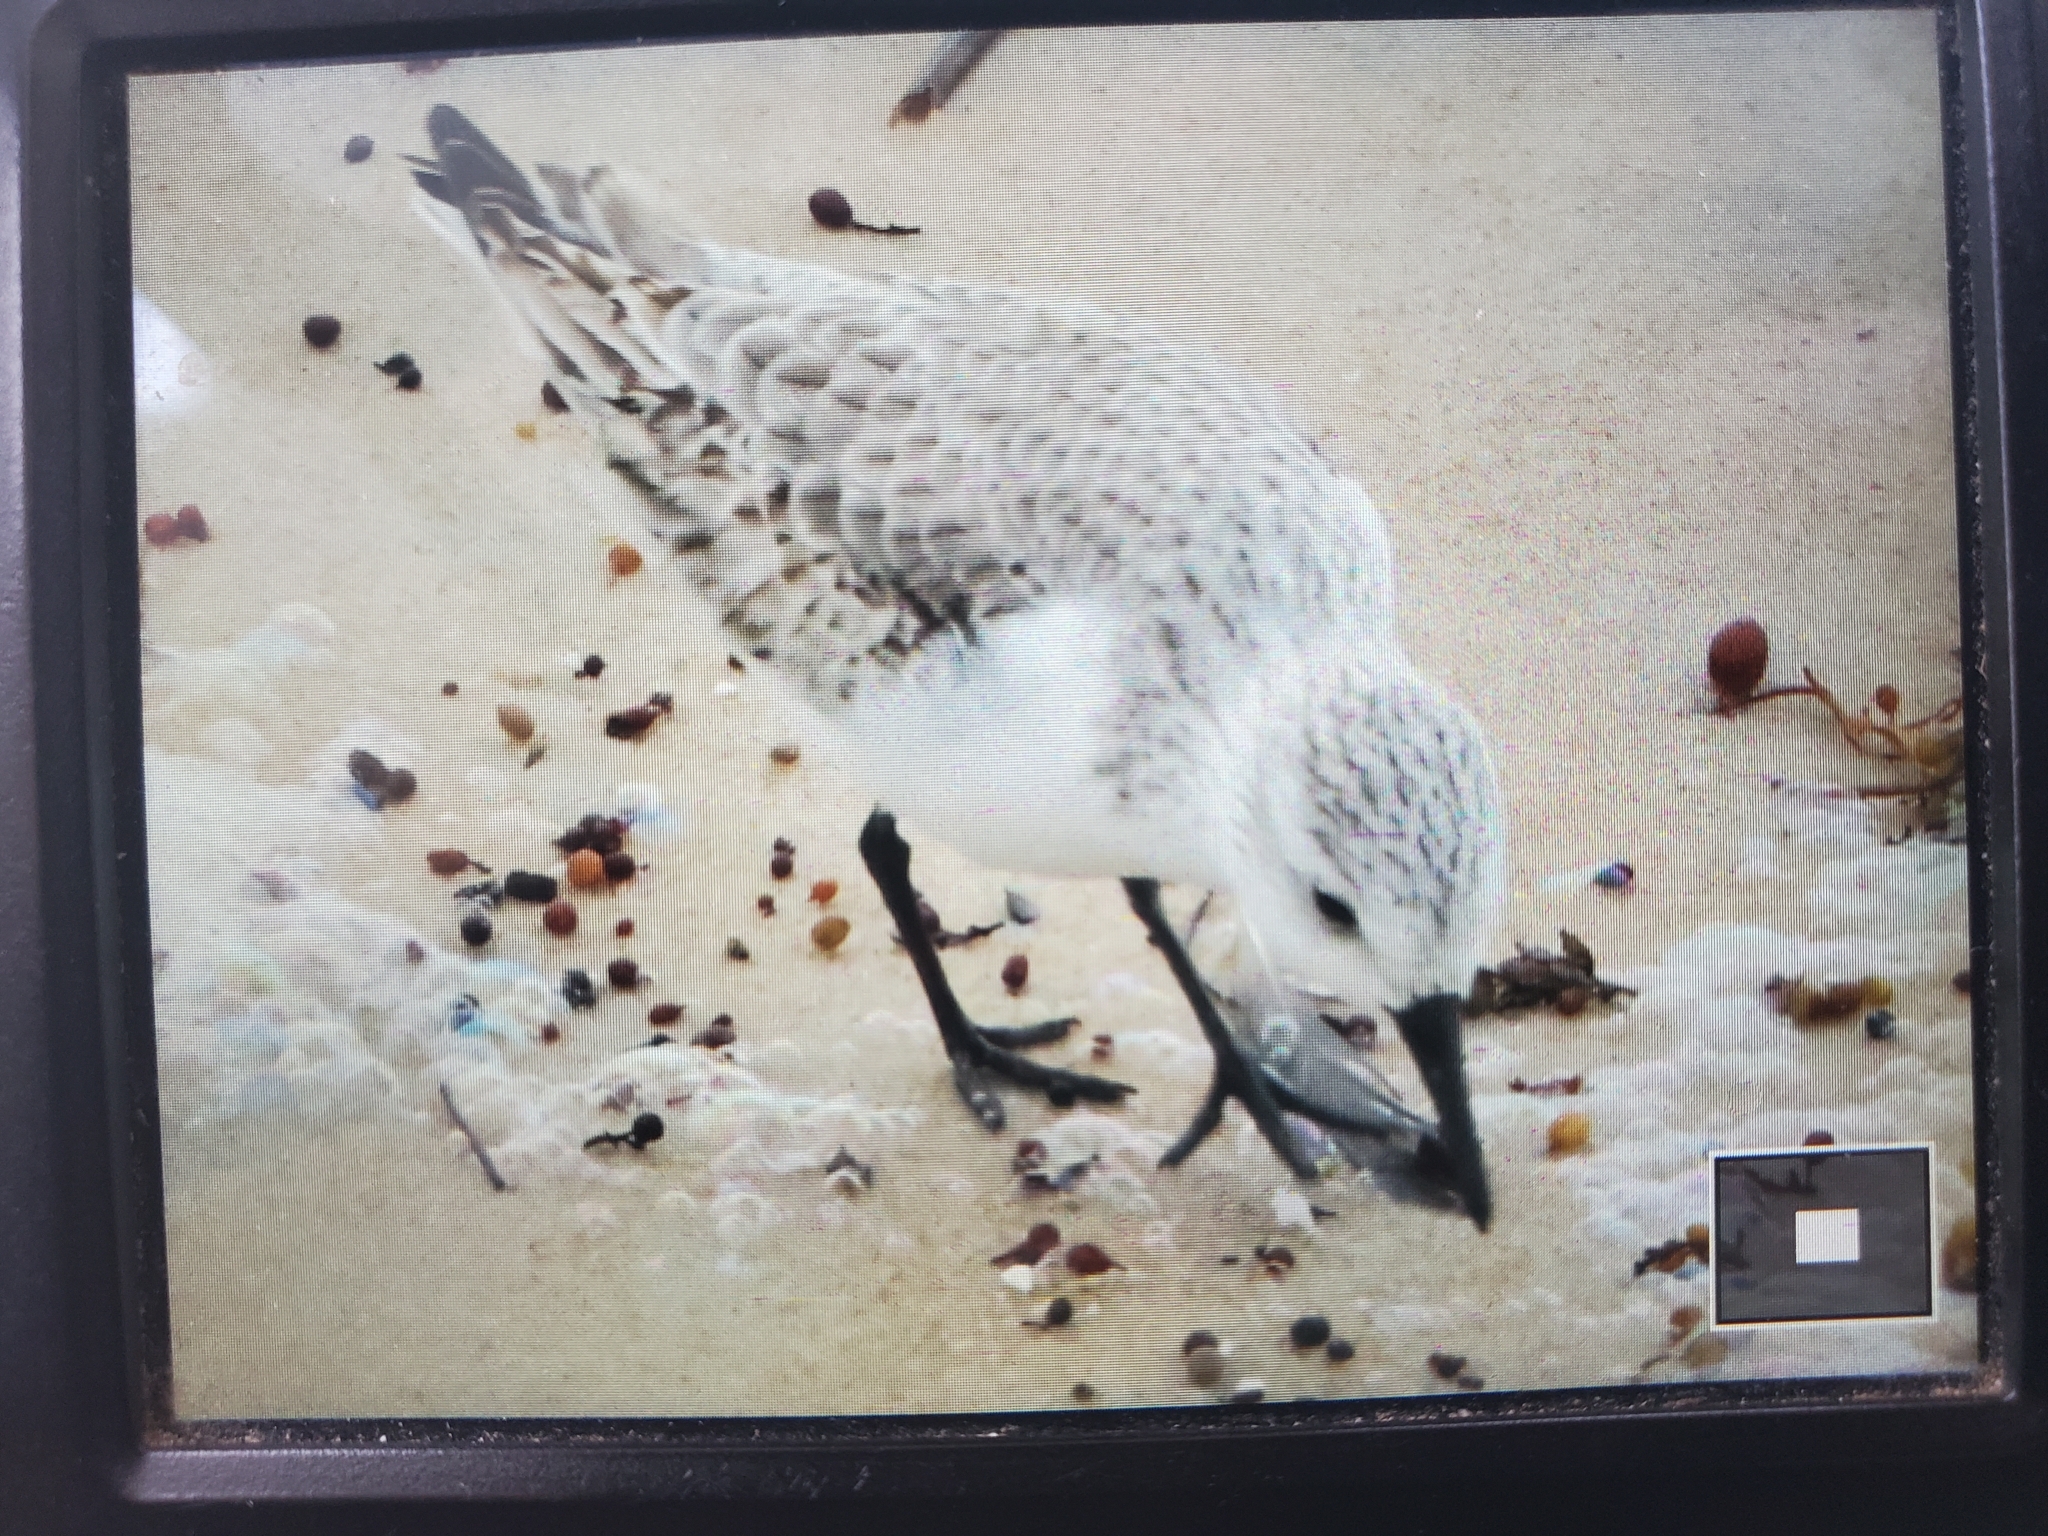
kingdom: Animalia
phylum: Chordata
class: Aves
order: Charadriiformes
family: Scolopacidae
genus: Calidris
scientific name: Calidris alba
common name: Sanderling
